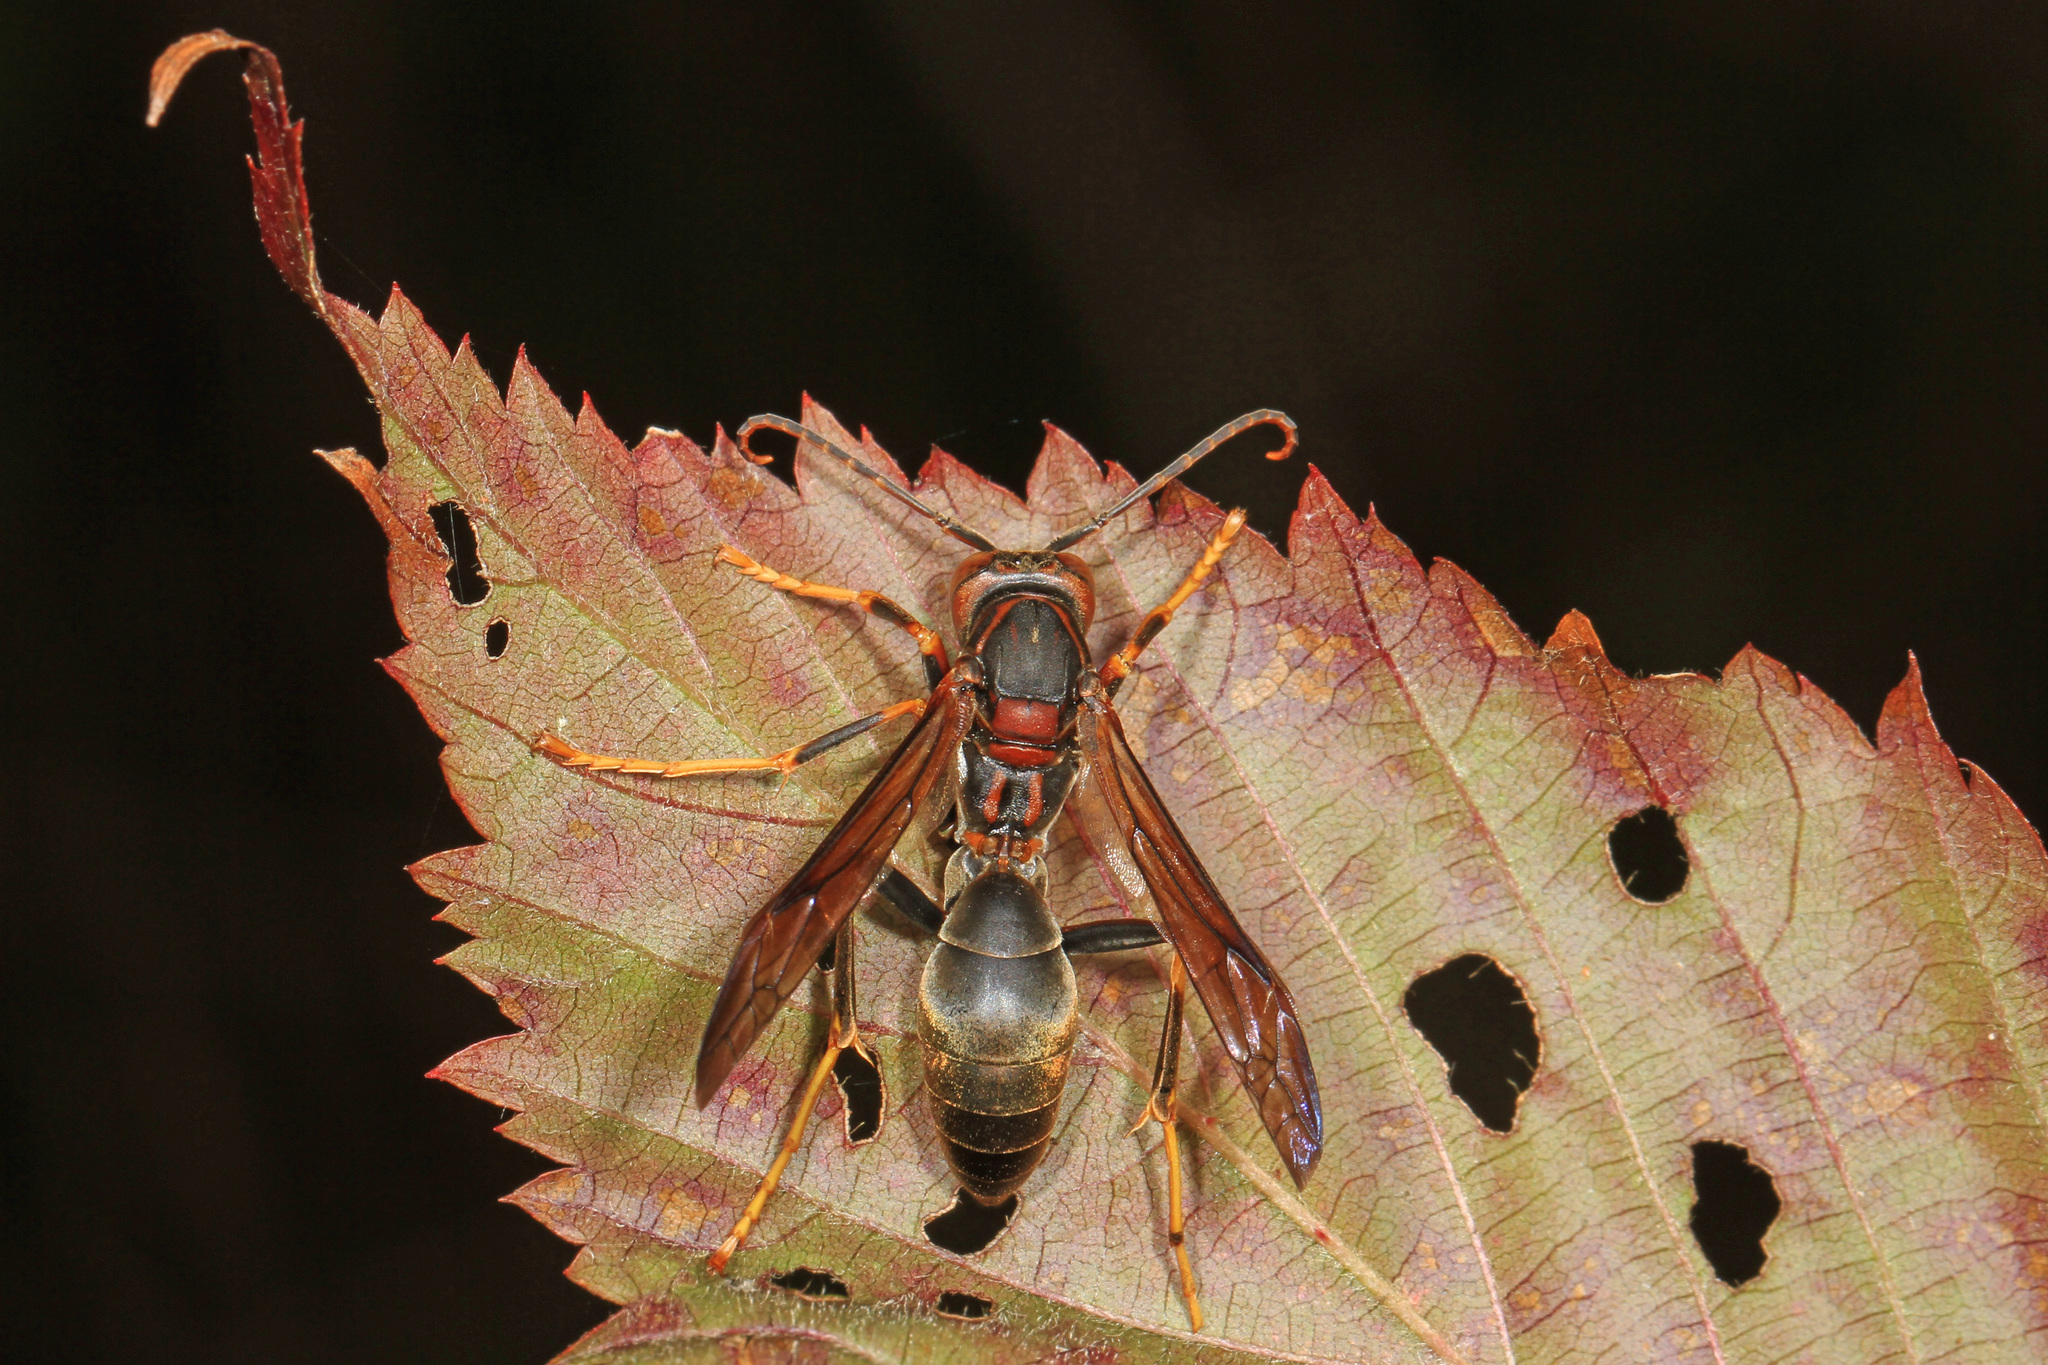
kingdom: Animalia
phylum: Arthropoda
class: Insecta
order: Hymenoptera
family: Eumenidae
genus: Polistes
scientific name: Polistes metricus
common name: Metric paper wasp
